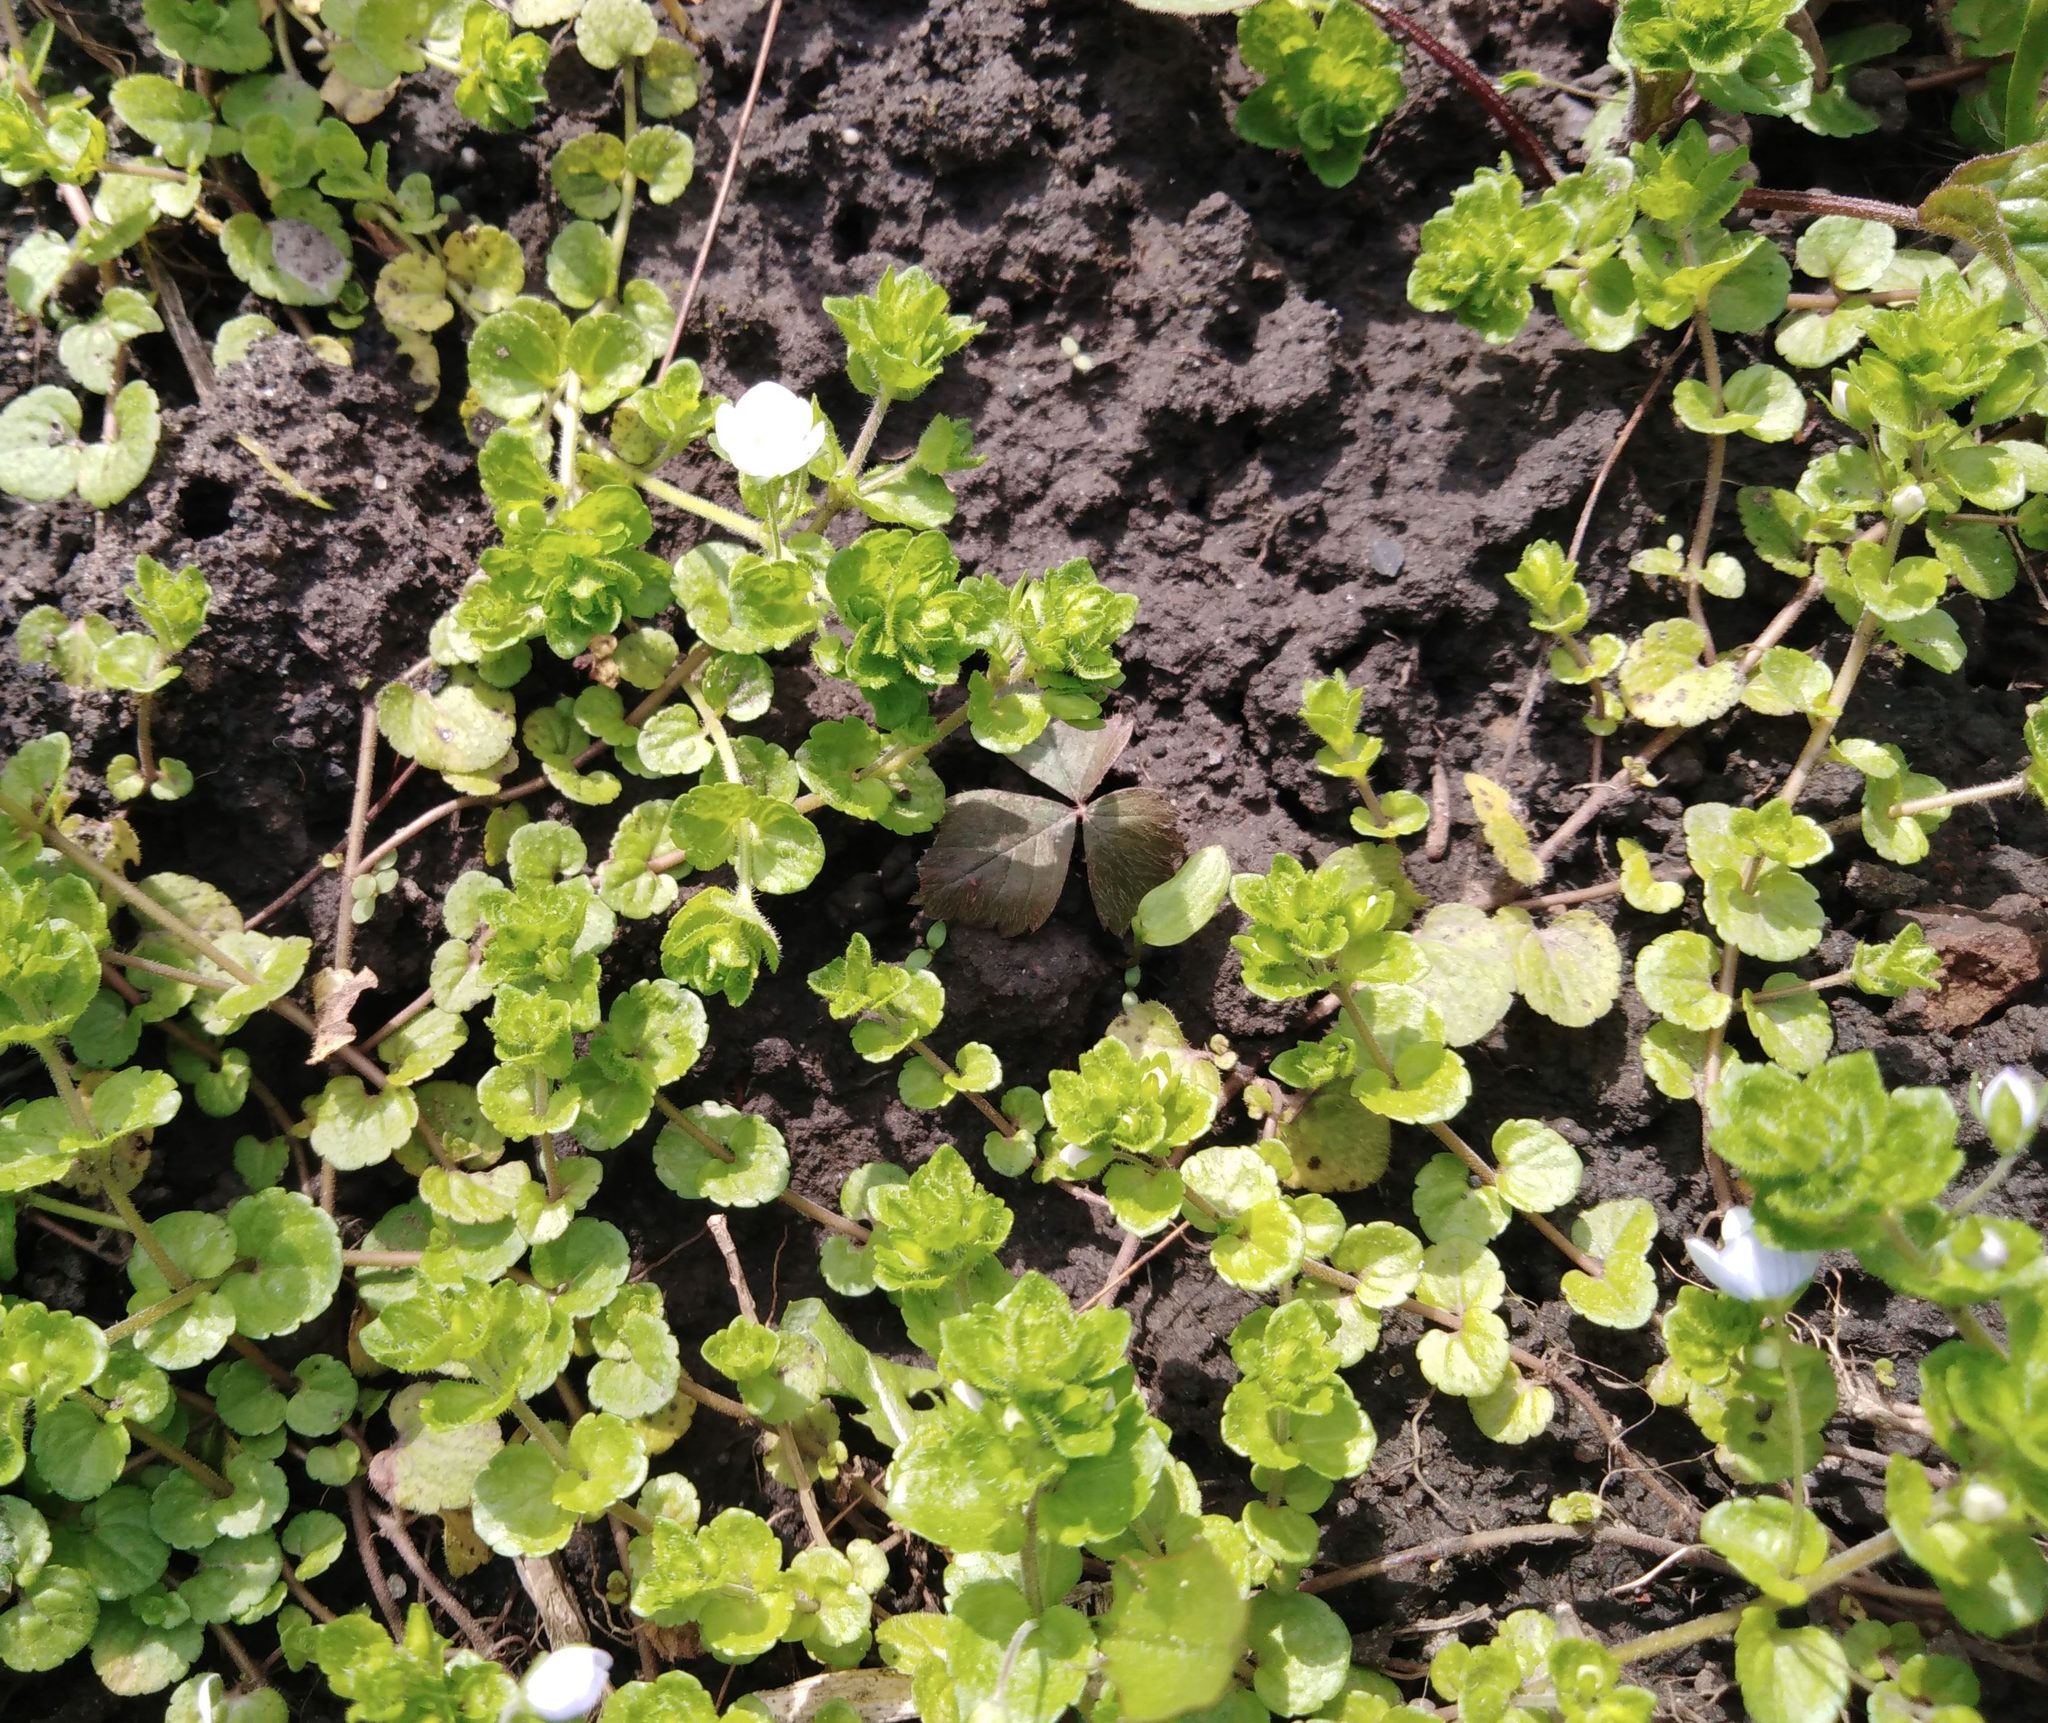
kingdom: Plantae
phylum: Tracheophyta
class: Magnoliopsida
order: Lamiales
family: Plantaginaceae
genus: Veronica
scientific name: Veronica filiformis
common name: Slender speedwell
